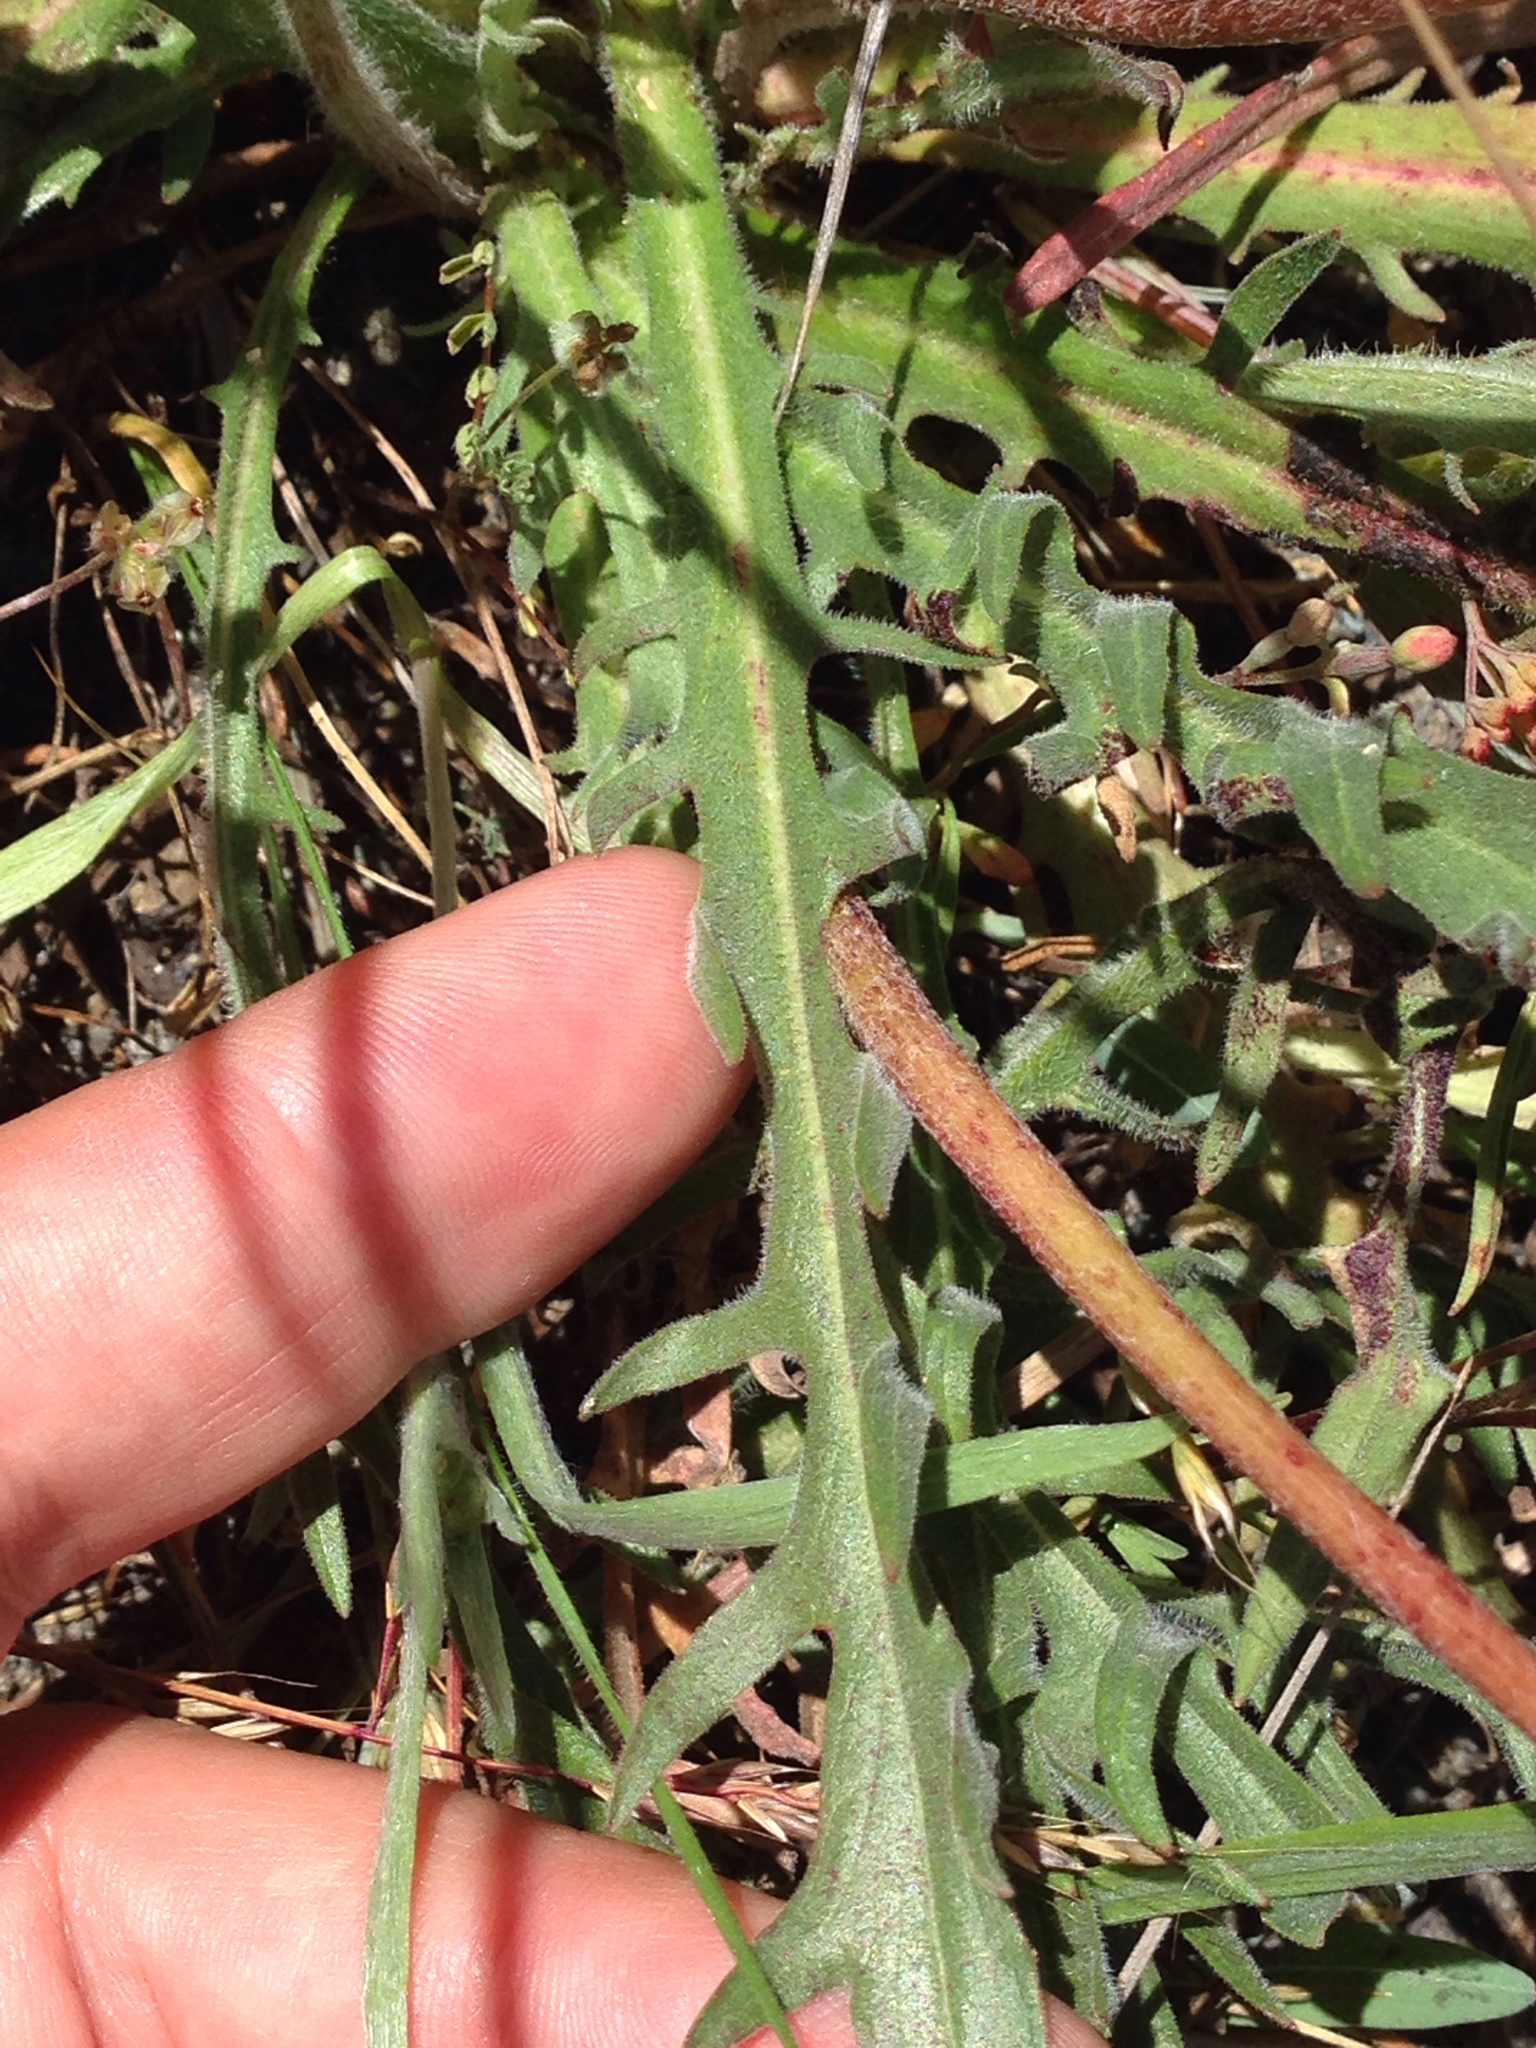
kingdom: Plantae
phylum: Tracheophyta
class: Magnoliopsida
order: Asterales
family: Asteraceae
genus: Agoseris
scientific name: Agoseris grandiflora
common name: Grassland agoseris
